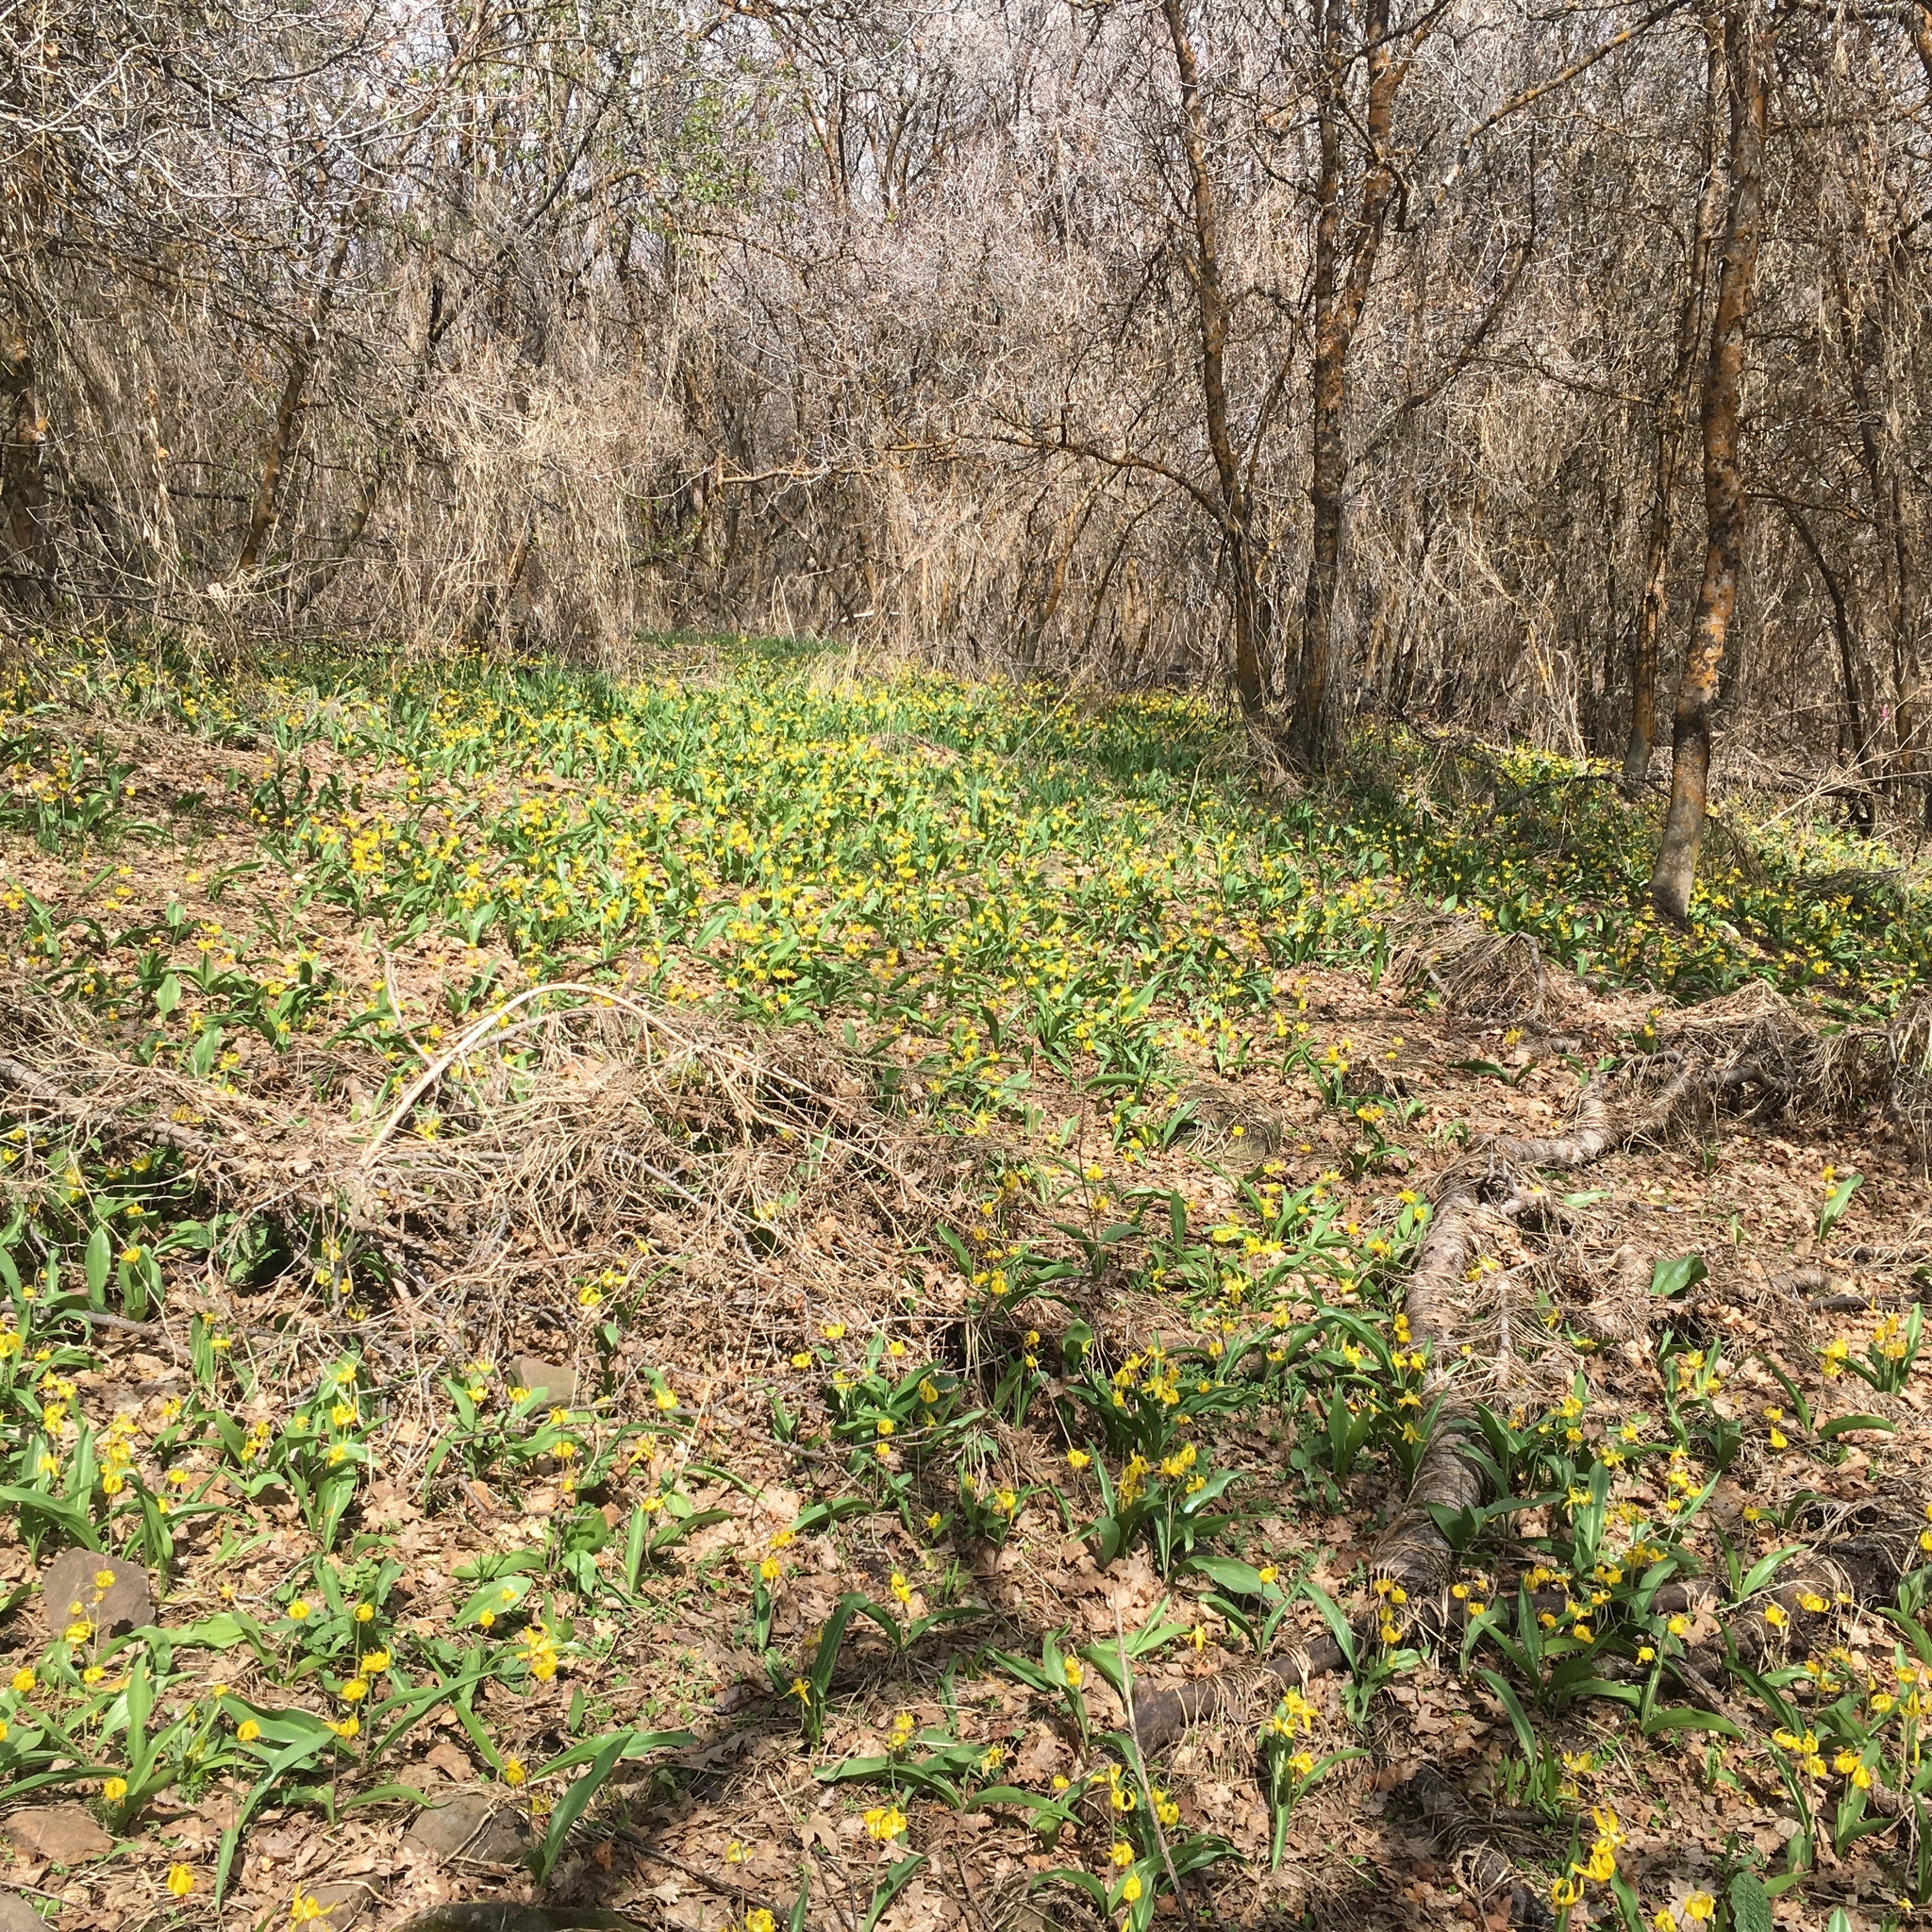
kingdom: Plantae
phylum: Tracheophyta
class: Liliopsida
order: Liliales
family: Liliaceae
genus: Erythronium
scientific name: Erythronium grandiflorum
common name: Avalanche-lily
